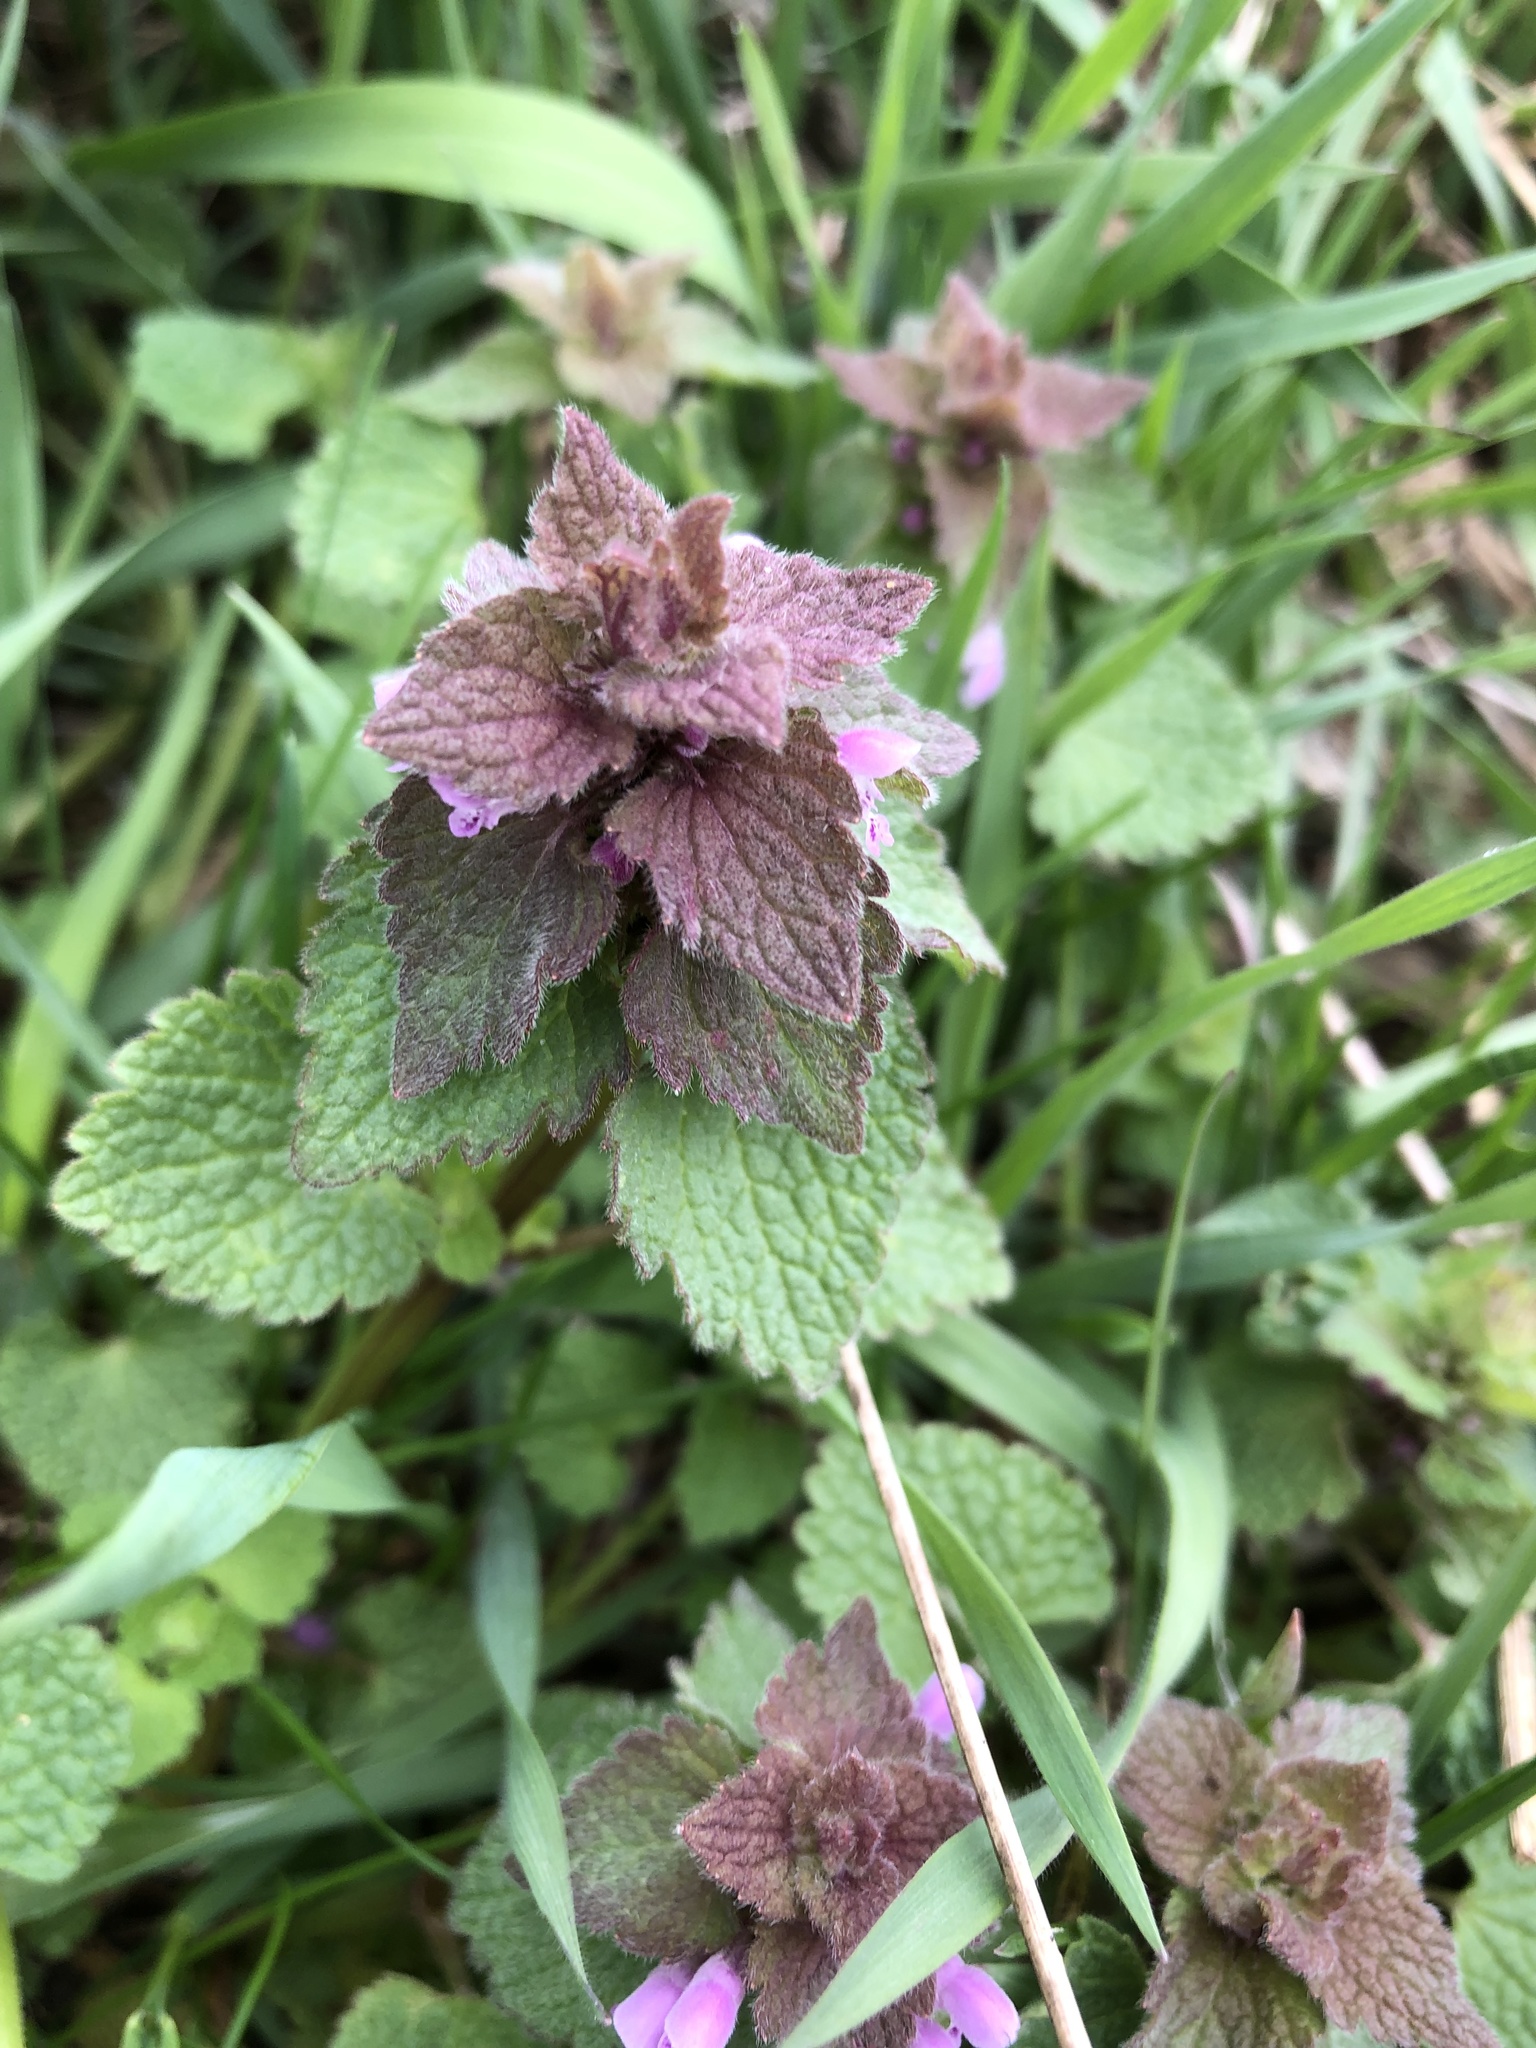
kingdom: Plantae
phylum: Tracheophyta
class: Magnoliopsida
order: Lamiales
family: Lamiaceae
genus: Lamium
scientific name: Lamium purpureum
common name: Red dead-nettle
